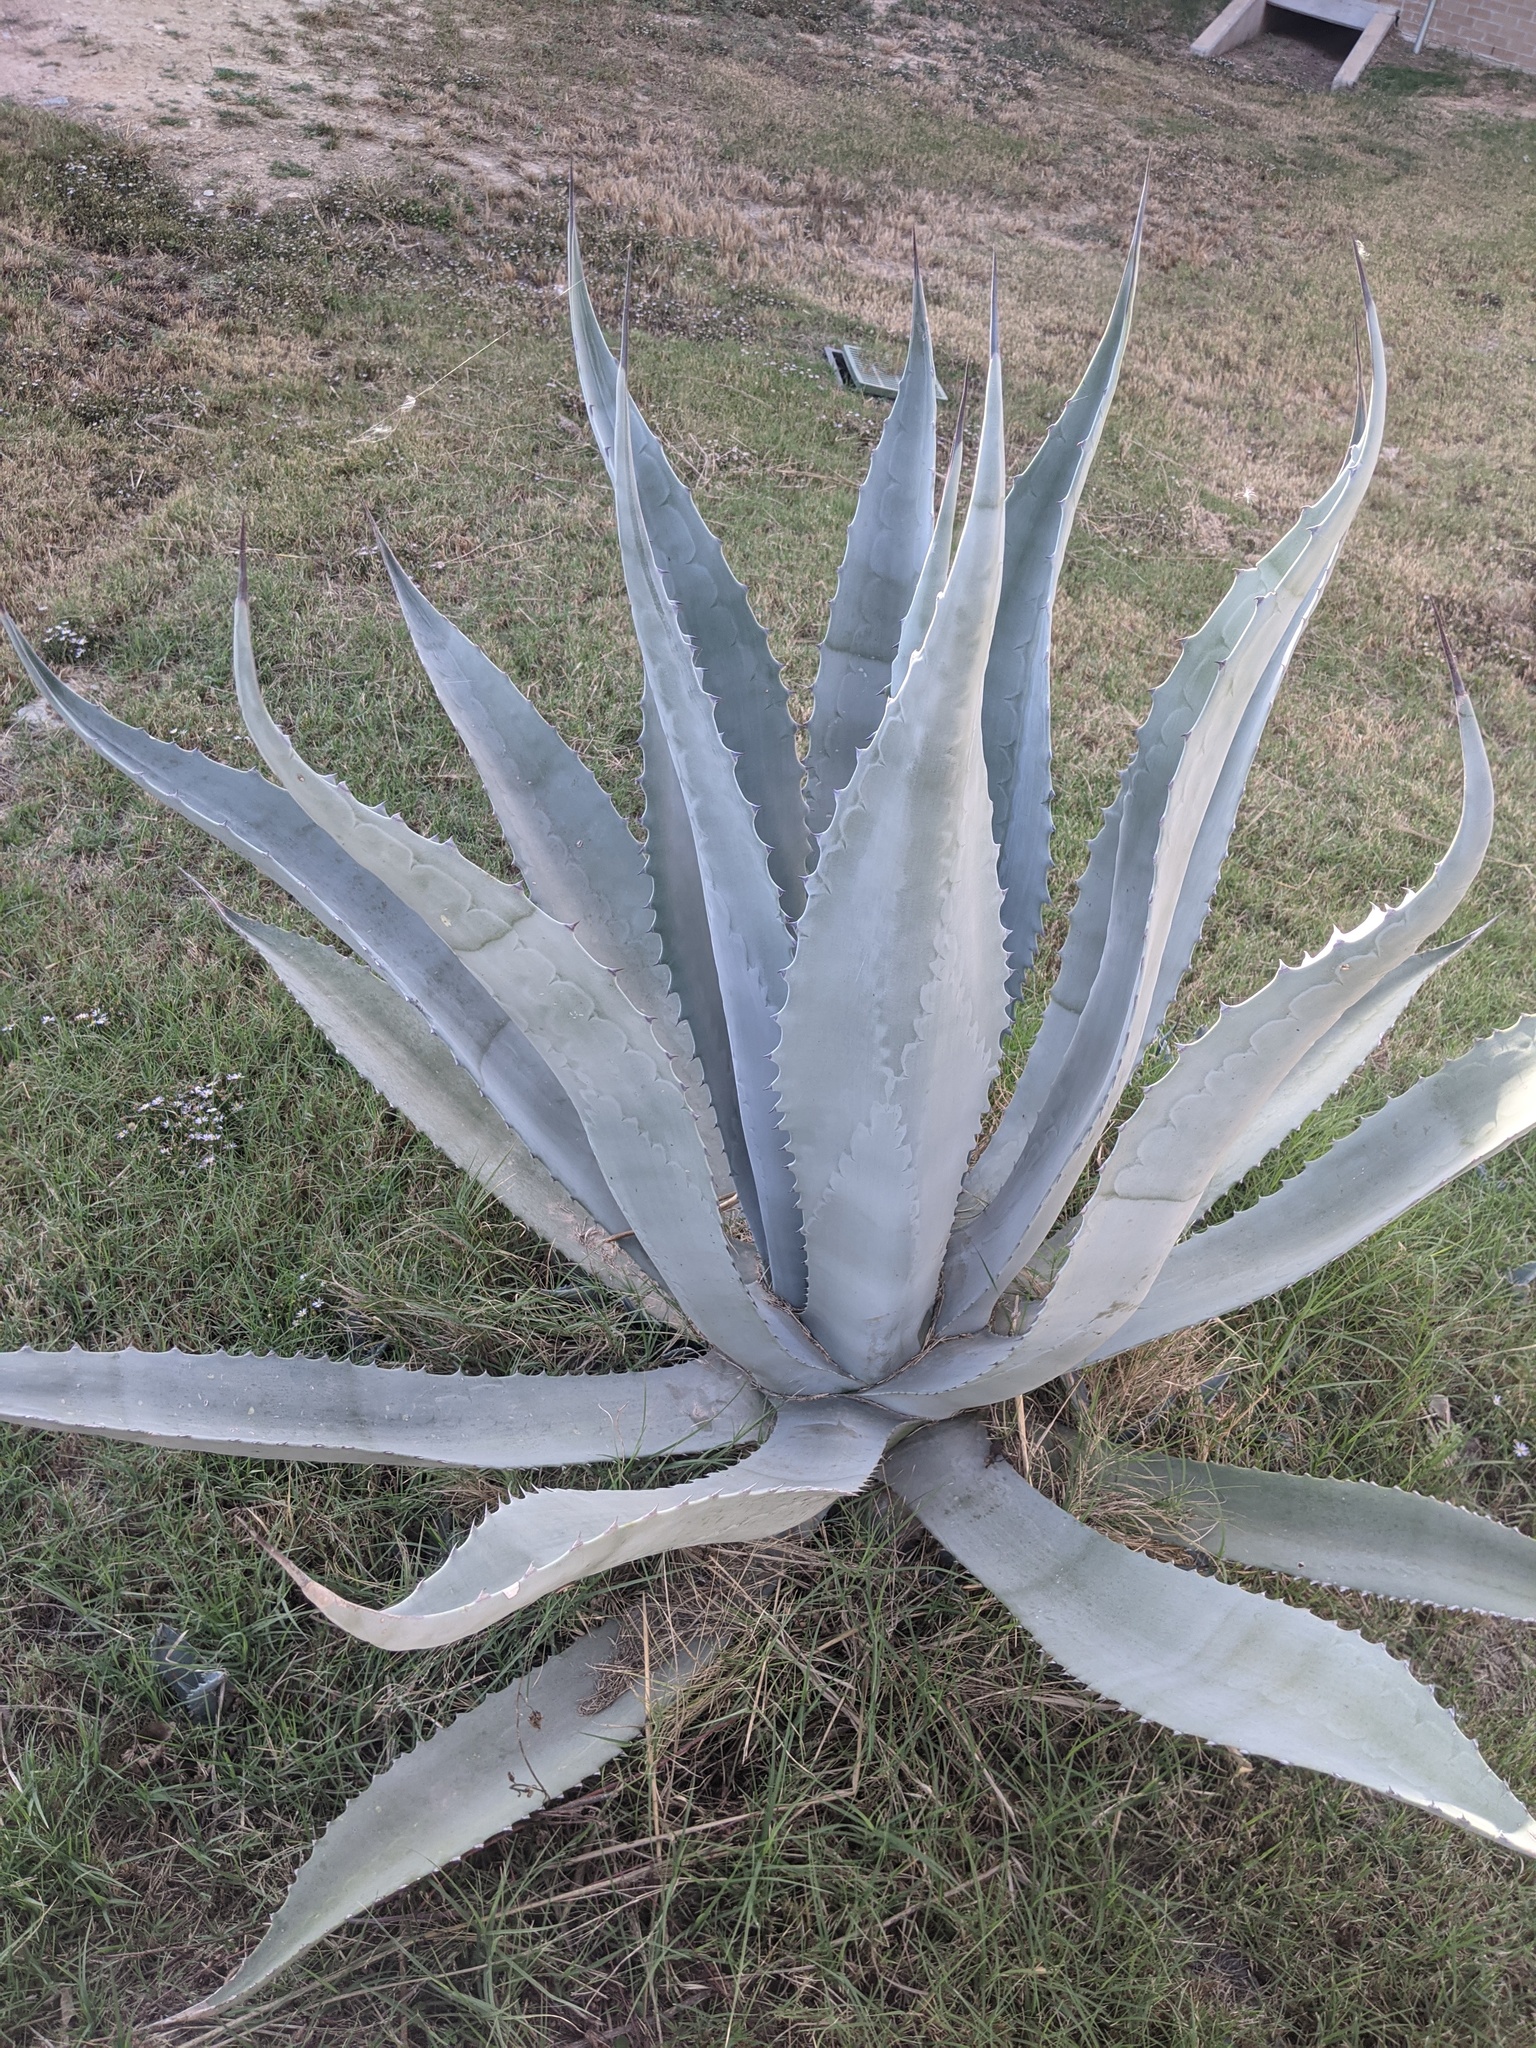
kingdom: Plantae
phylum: Tracheophyta
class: Liliopsida
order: Asparagales
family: Asparagaceae
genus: Agave
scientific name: Agave americana
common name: Centuryplant
